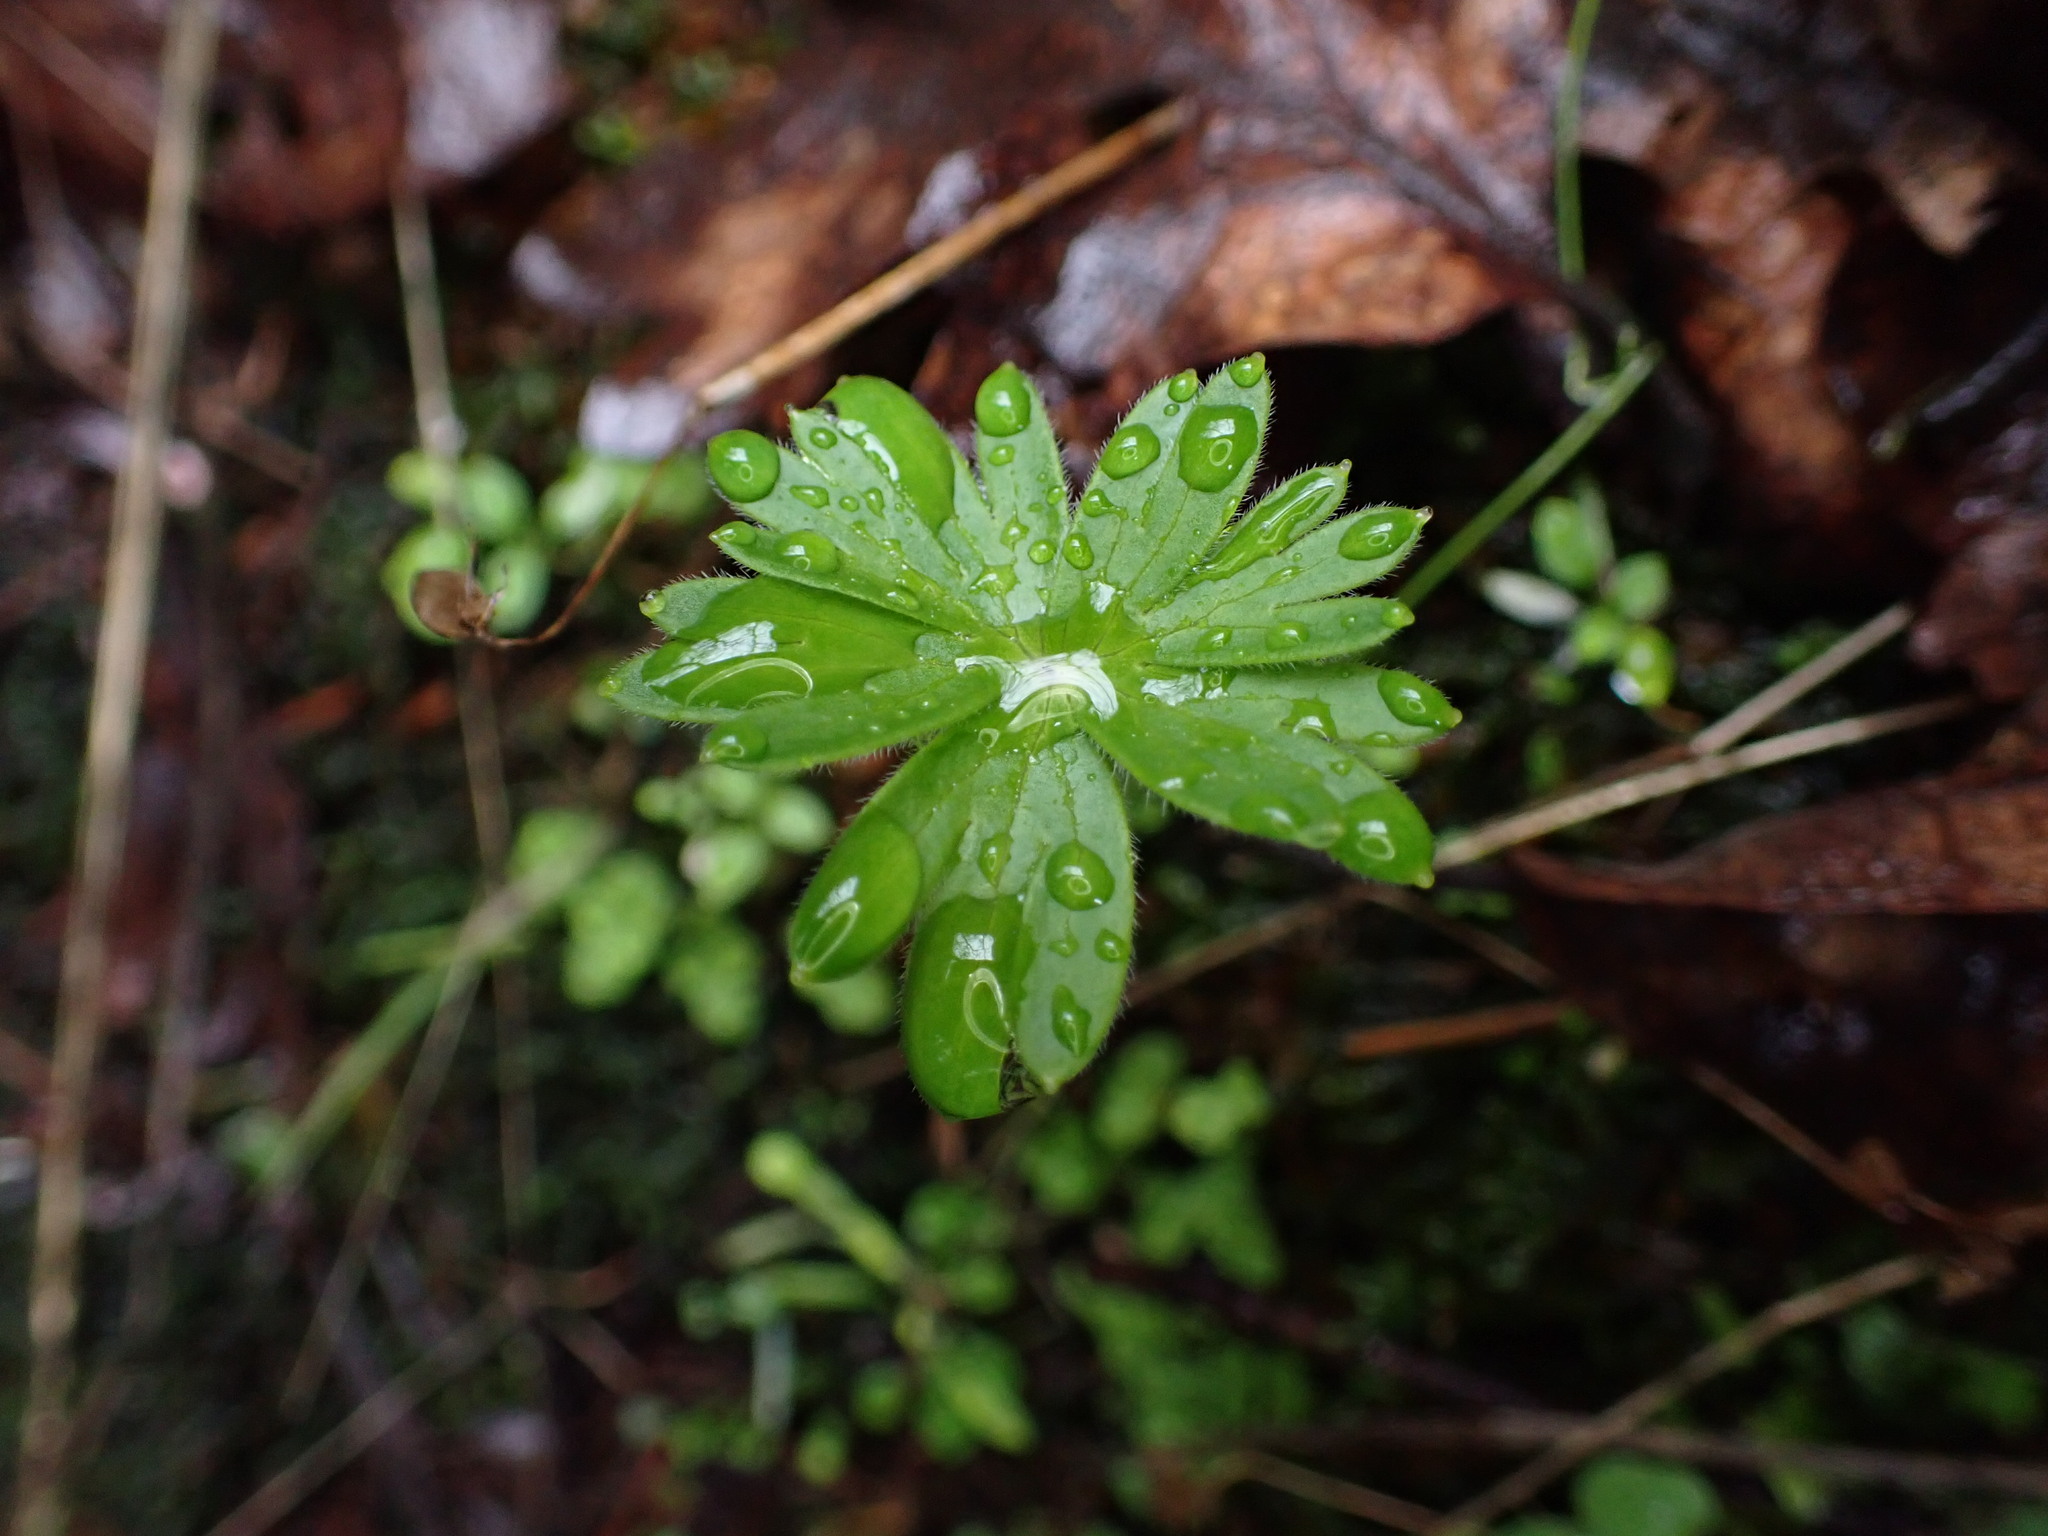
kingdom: Plantae
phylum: Tracheophyta
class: Magnoliopsida
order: Ranunculales
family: Ranunculaceae
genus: Delphinium
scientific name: Delphinium menziesii
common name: Menzies's larkspur
